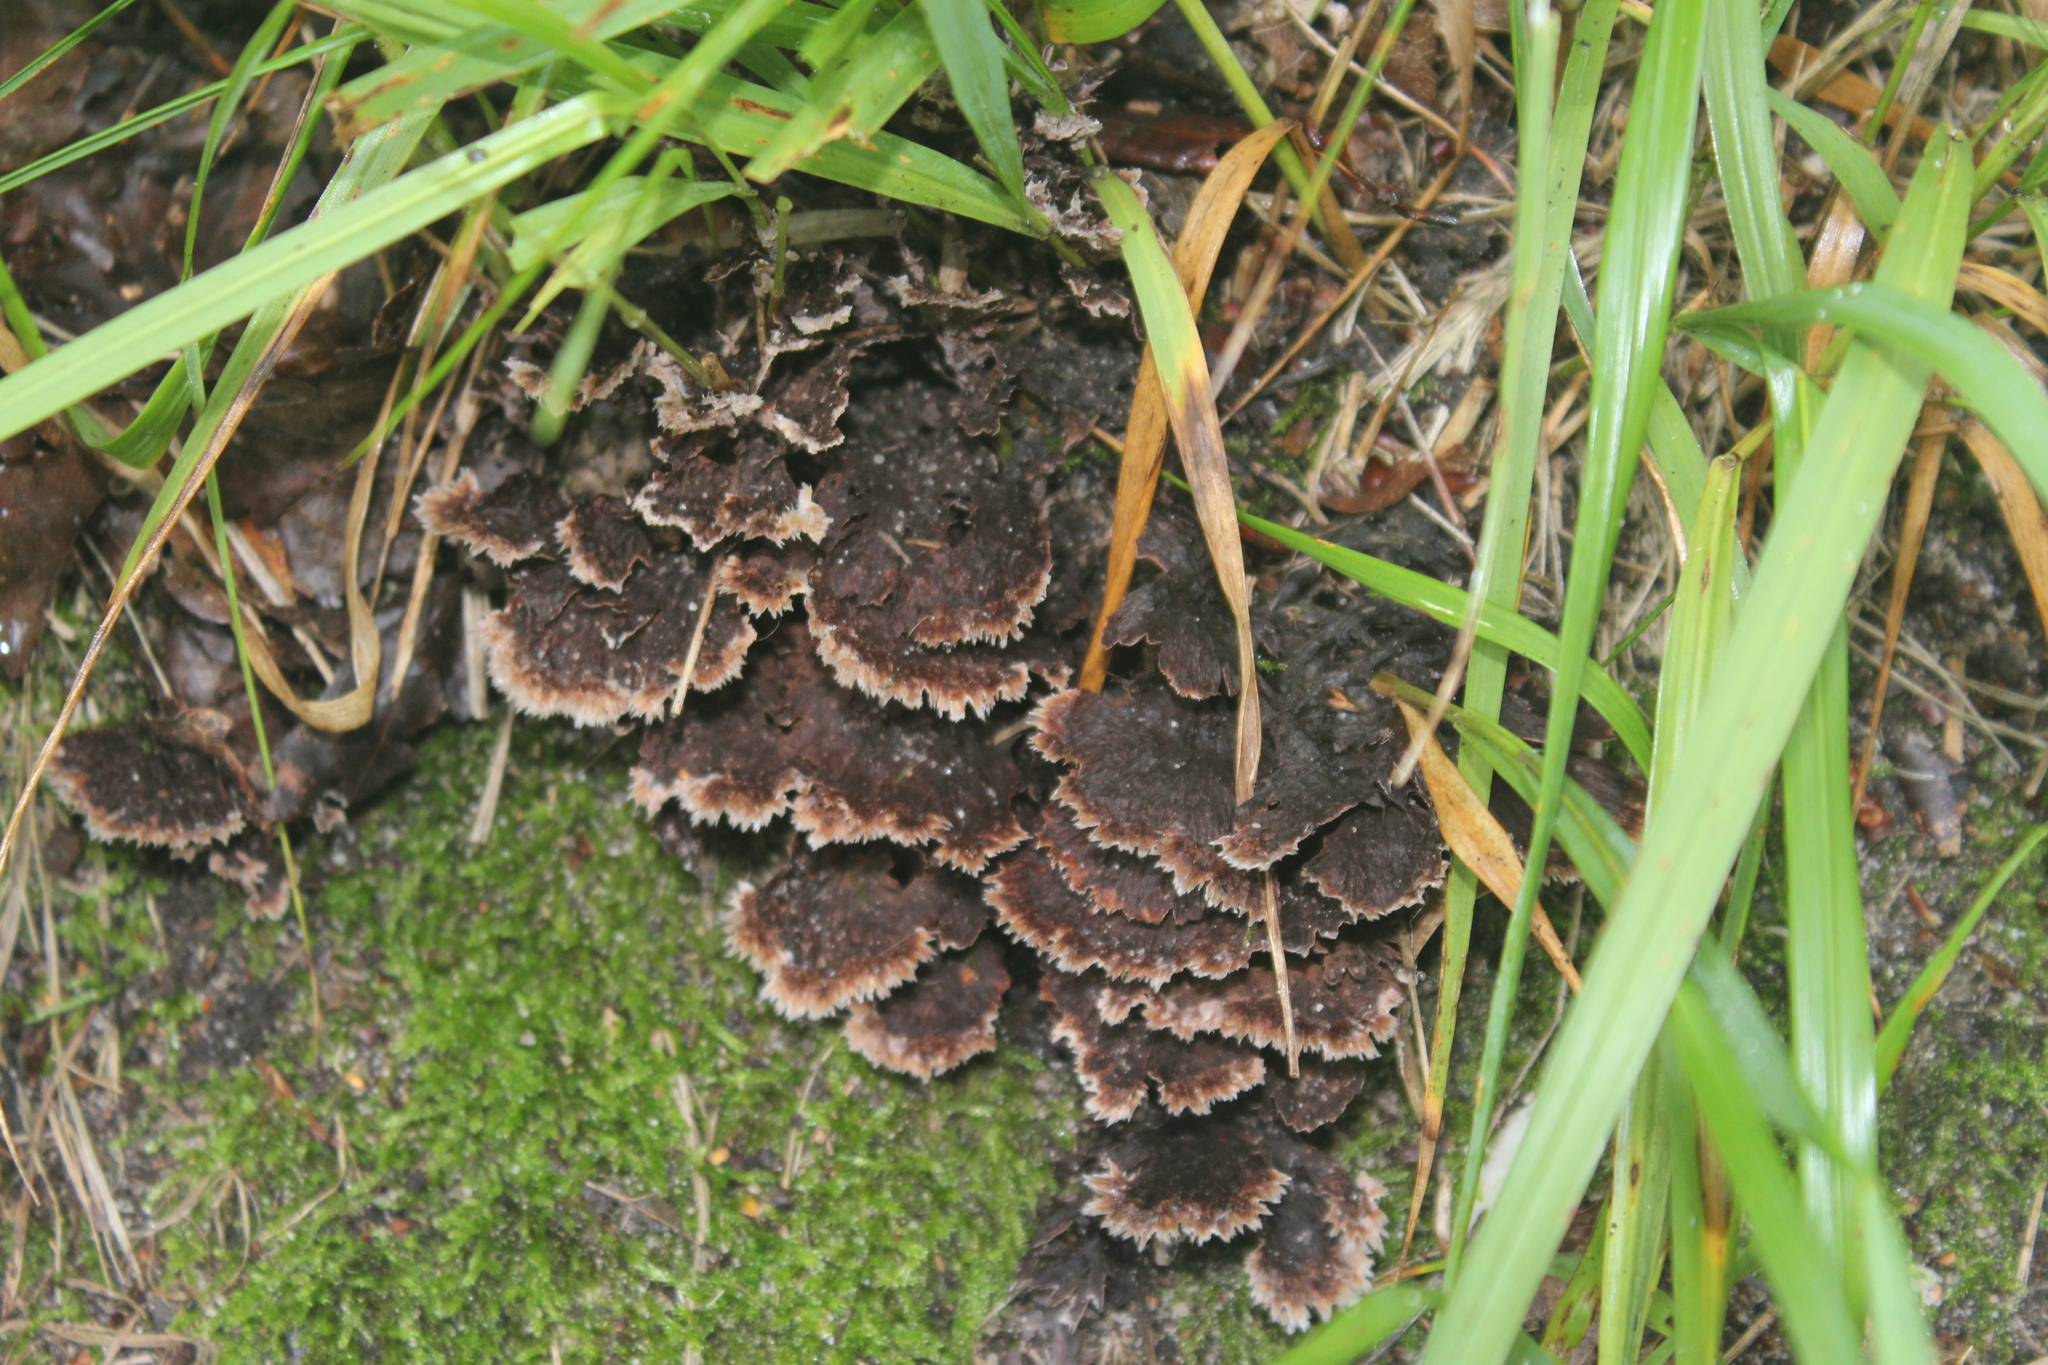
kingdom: Fungi
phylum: Basidiomycota
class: Agaricomycetes
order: Thelephorales
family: Thelephoraceae
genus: Thelephora
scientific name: Thelephora terrestris
